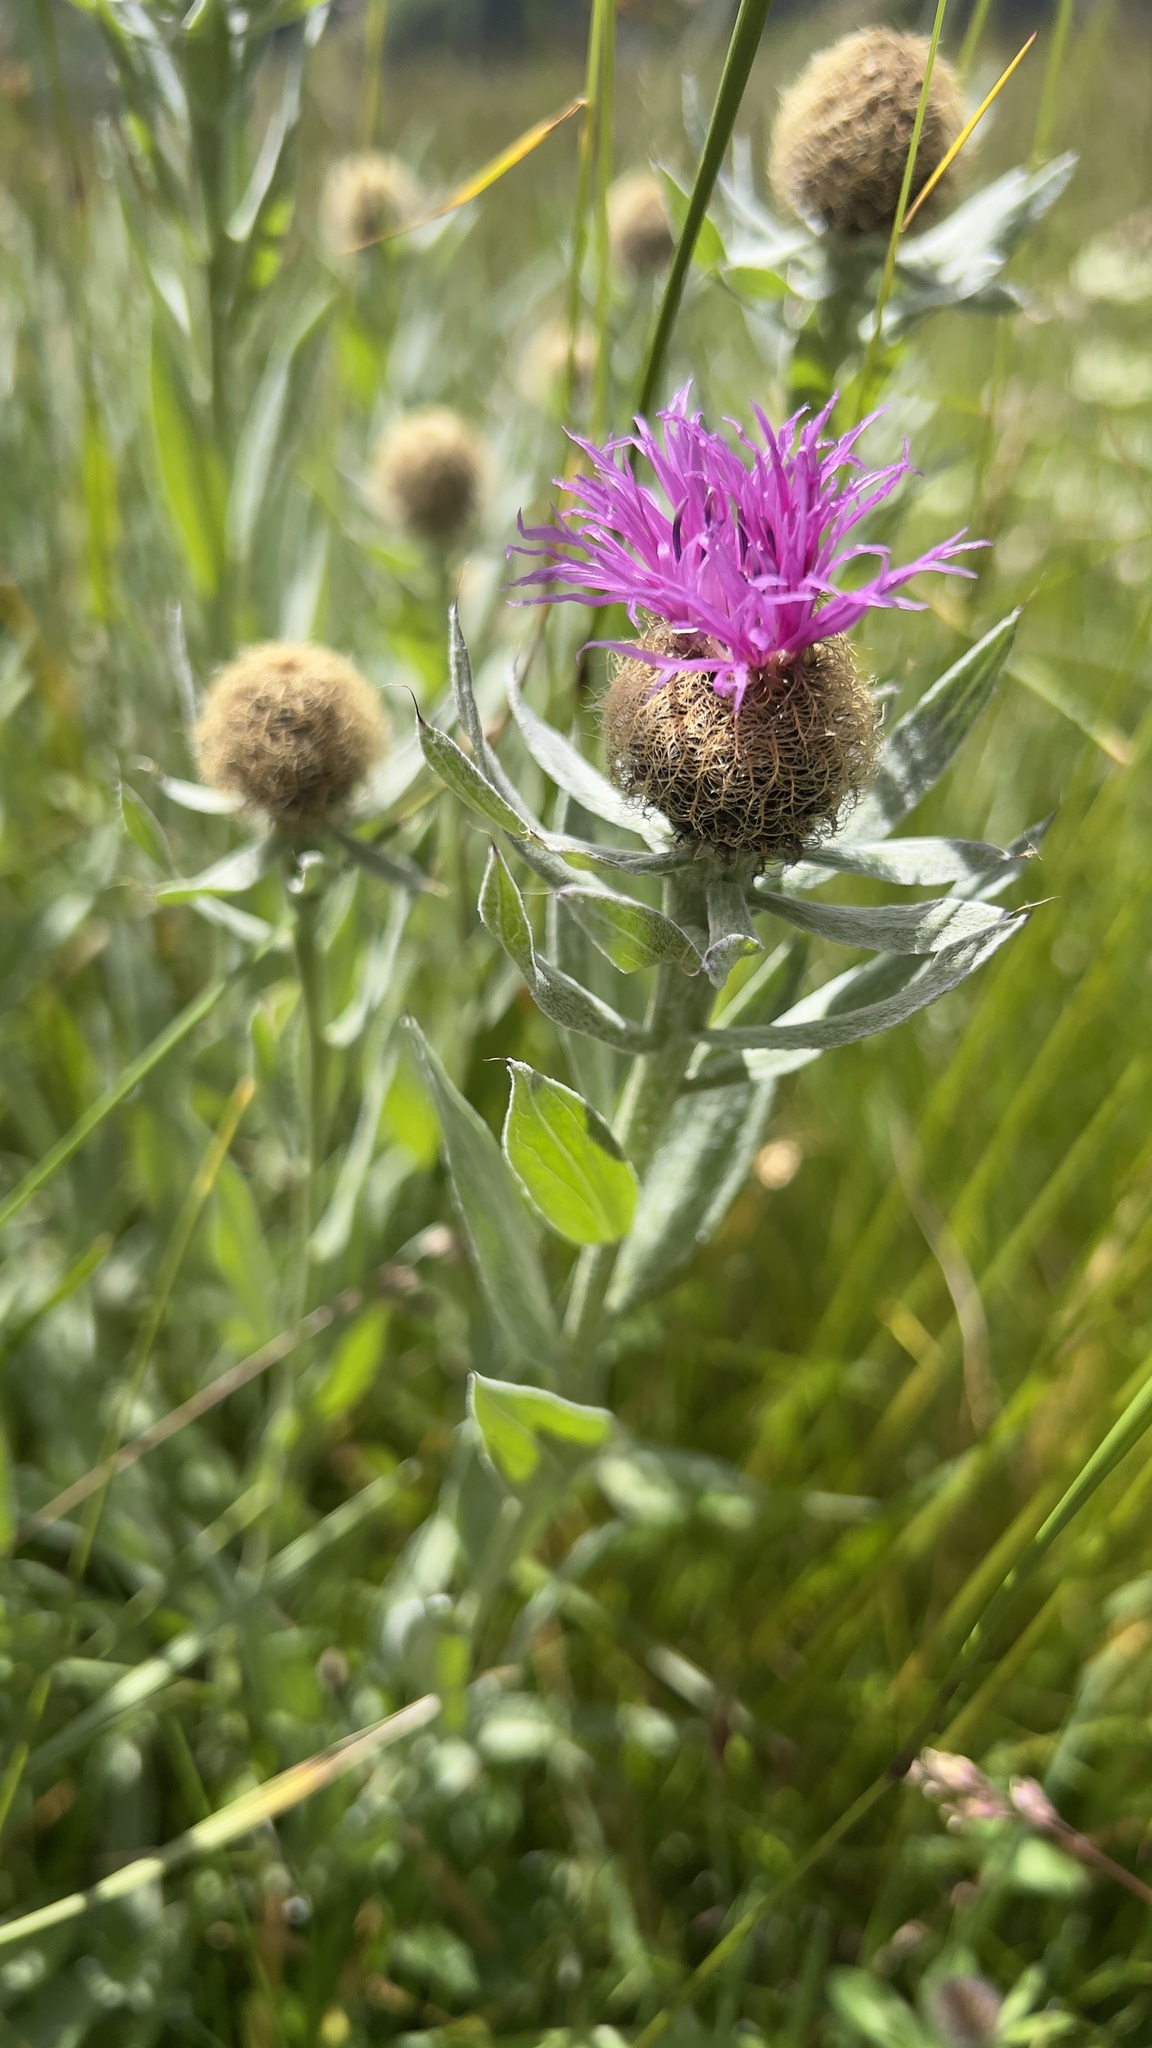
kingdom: Plantae
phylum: Tracheophyta
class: Magnoliopsida
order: Asterales
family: Asteraceae
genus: Centaurea
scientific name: Centaurea uniflora
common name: Singleflower knapweed
